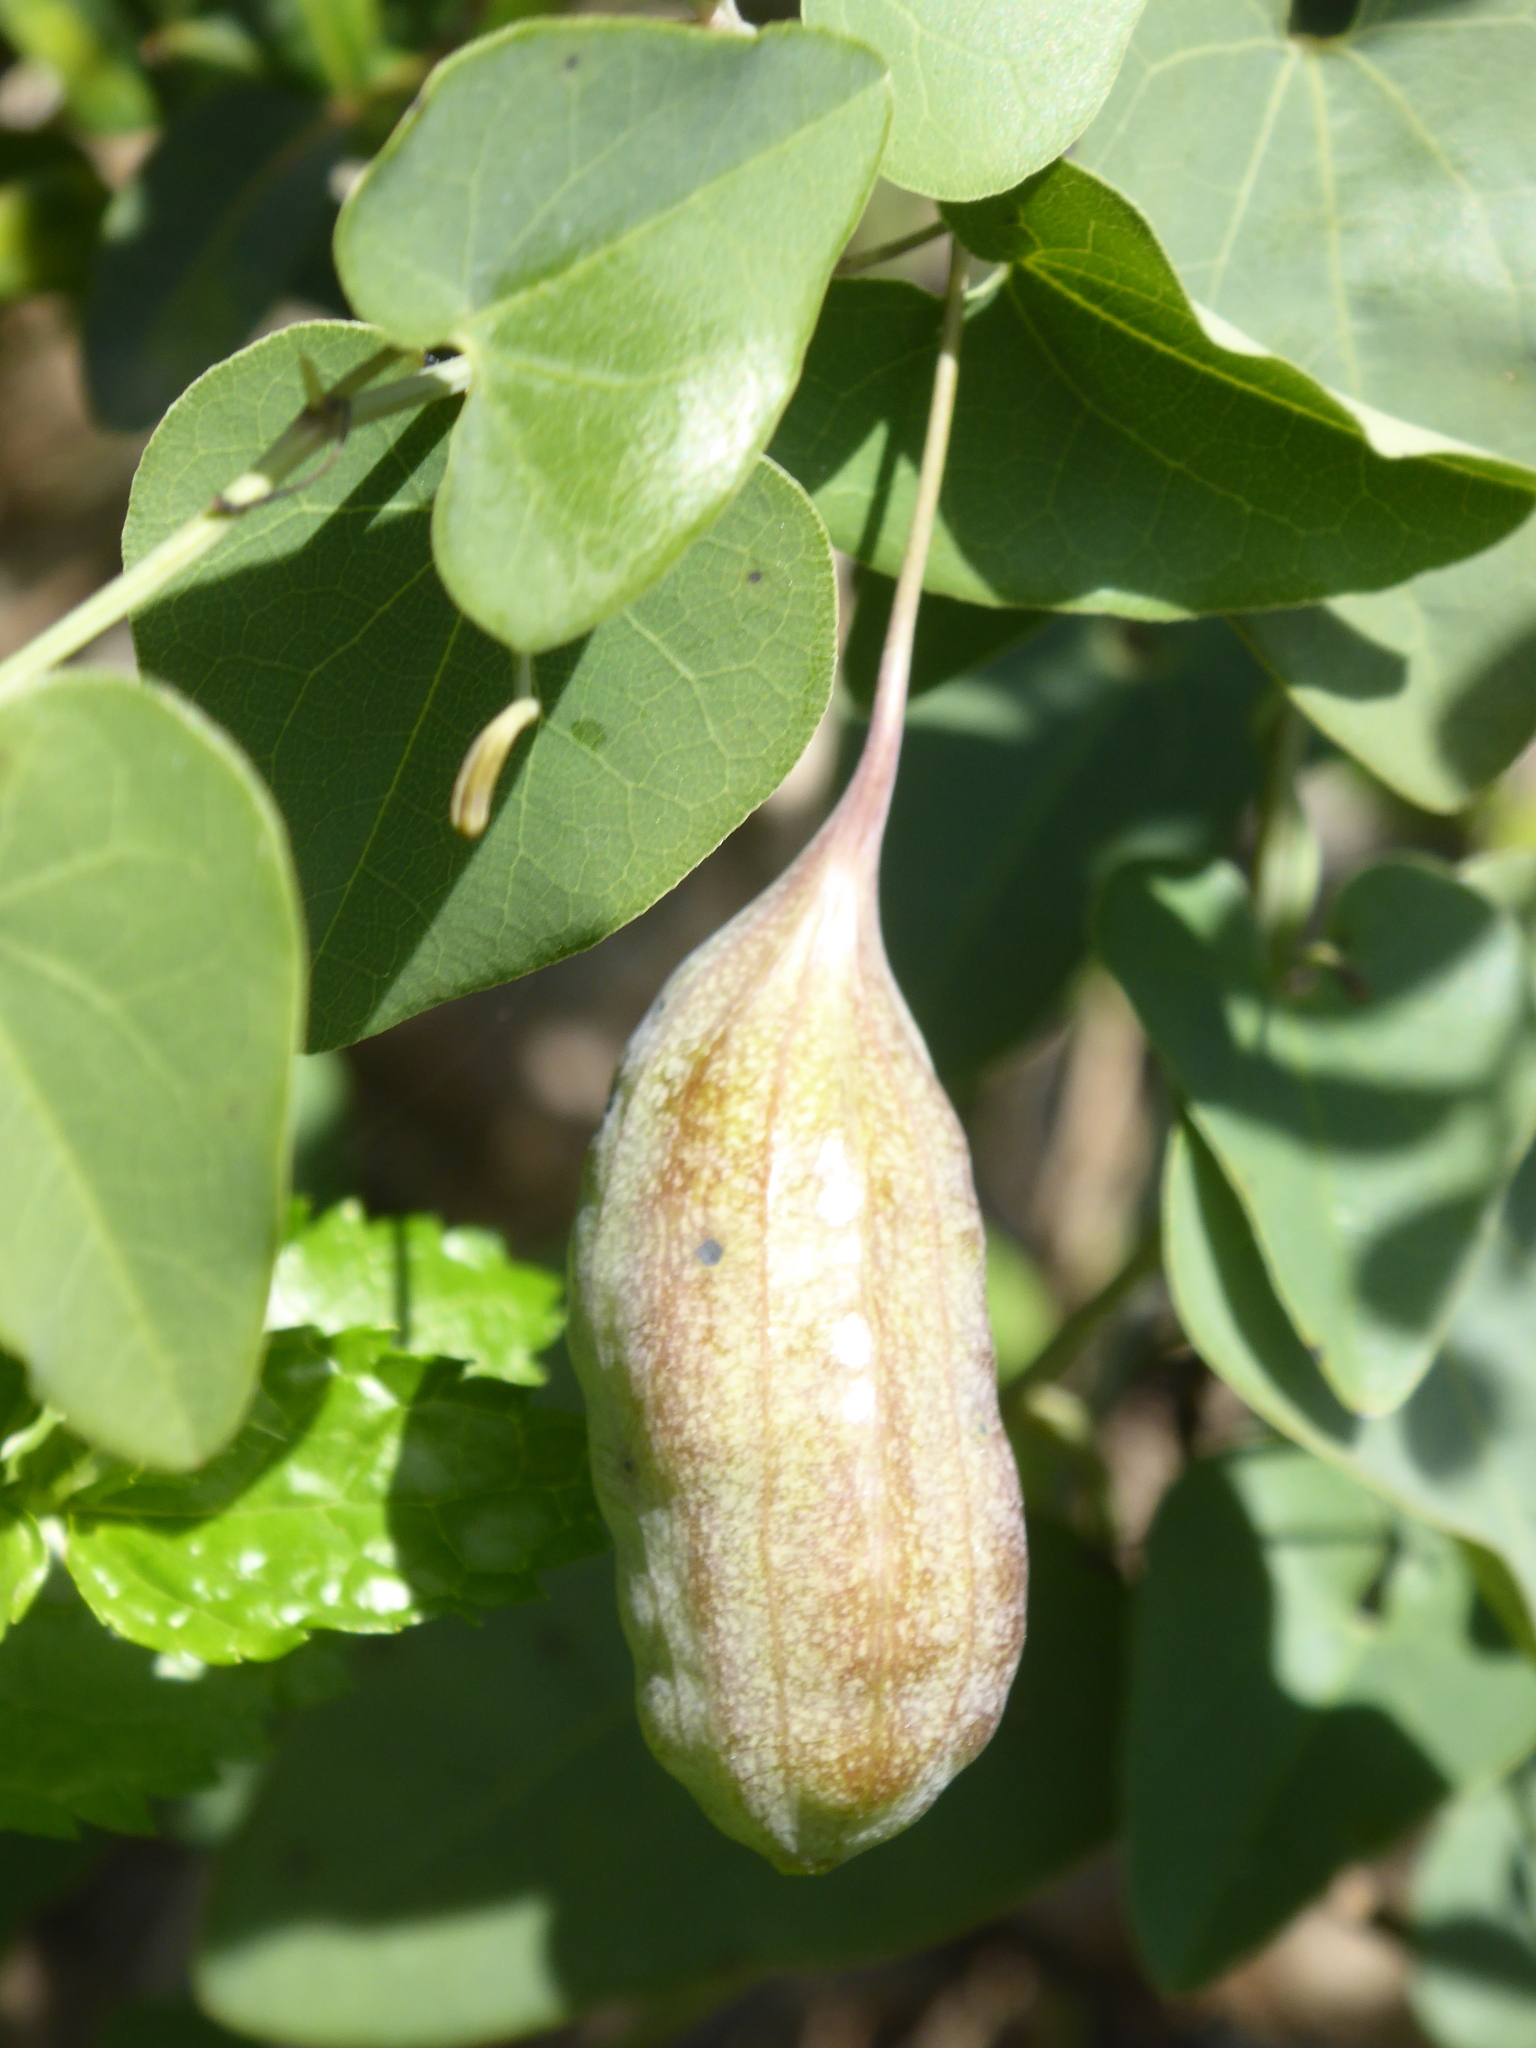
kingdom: Plantae
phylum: Tracheophyta
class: Magnoliopsida
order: Piperales
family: Aristolochiaceae
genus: Aristolochia
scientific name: Aristolochia baetica
